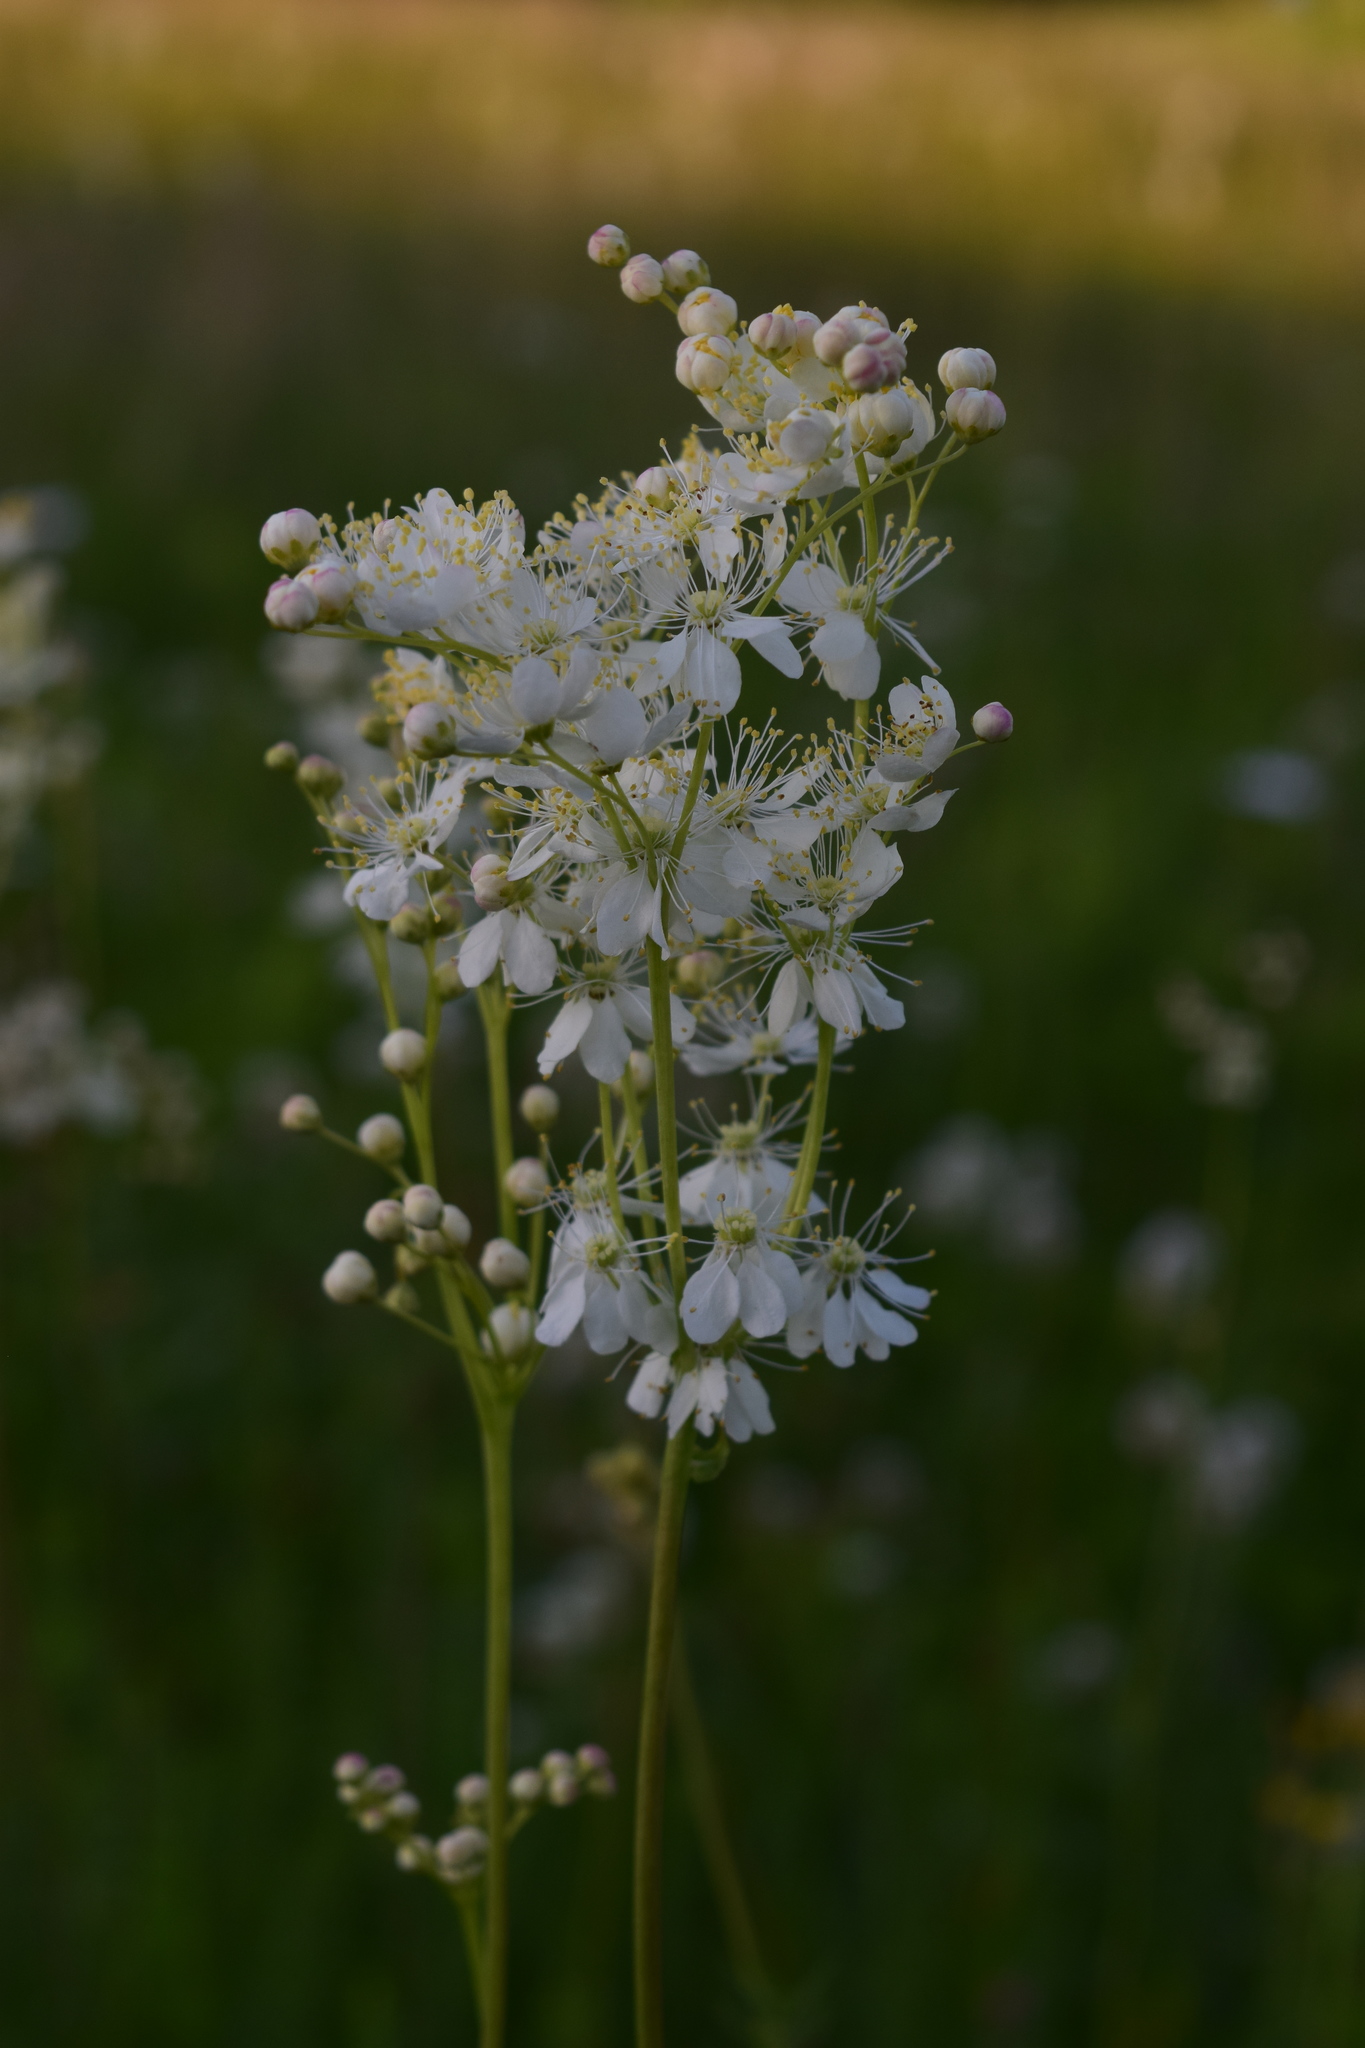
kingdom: Plantae
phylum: Tracheophyta
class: Magnoliopsida
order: Rosales
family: Rosaceae
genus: Filipendula
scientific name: Filipendula vulgaris
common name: Dropwort
